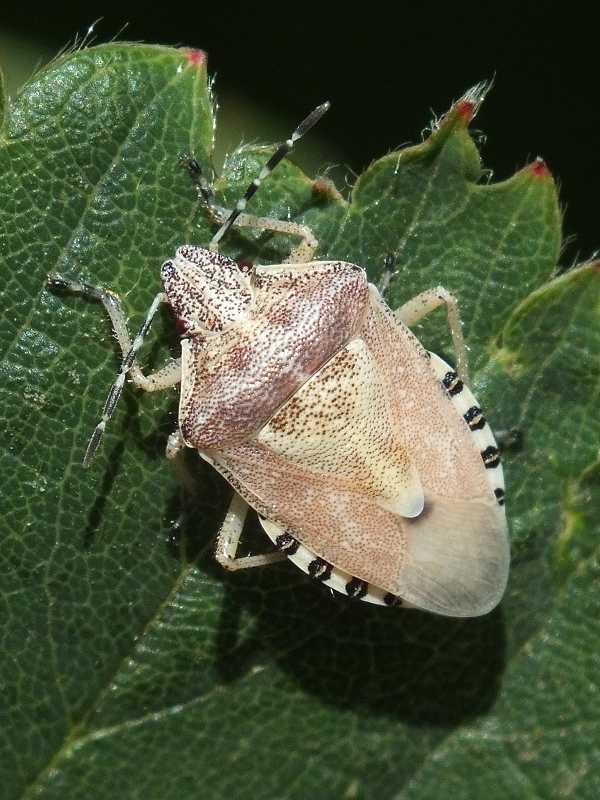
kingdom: Animalia
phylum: Arthropoda
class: Insecta
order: Hemiptera
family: Pentatomidae
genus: Dolycoris
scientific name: Dolycoris baccarum
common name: Sloe bug
